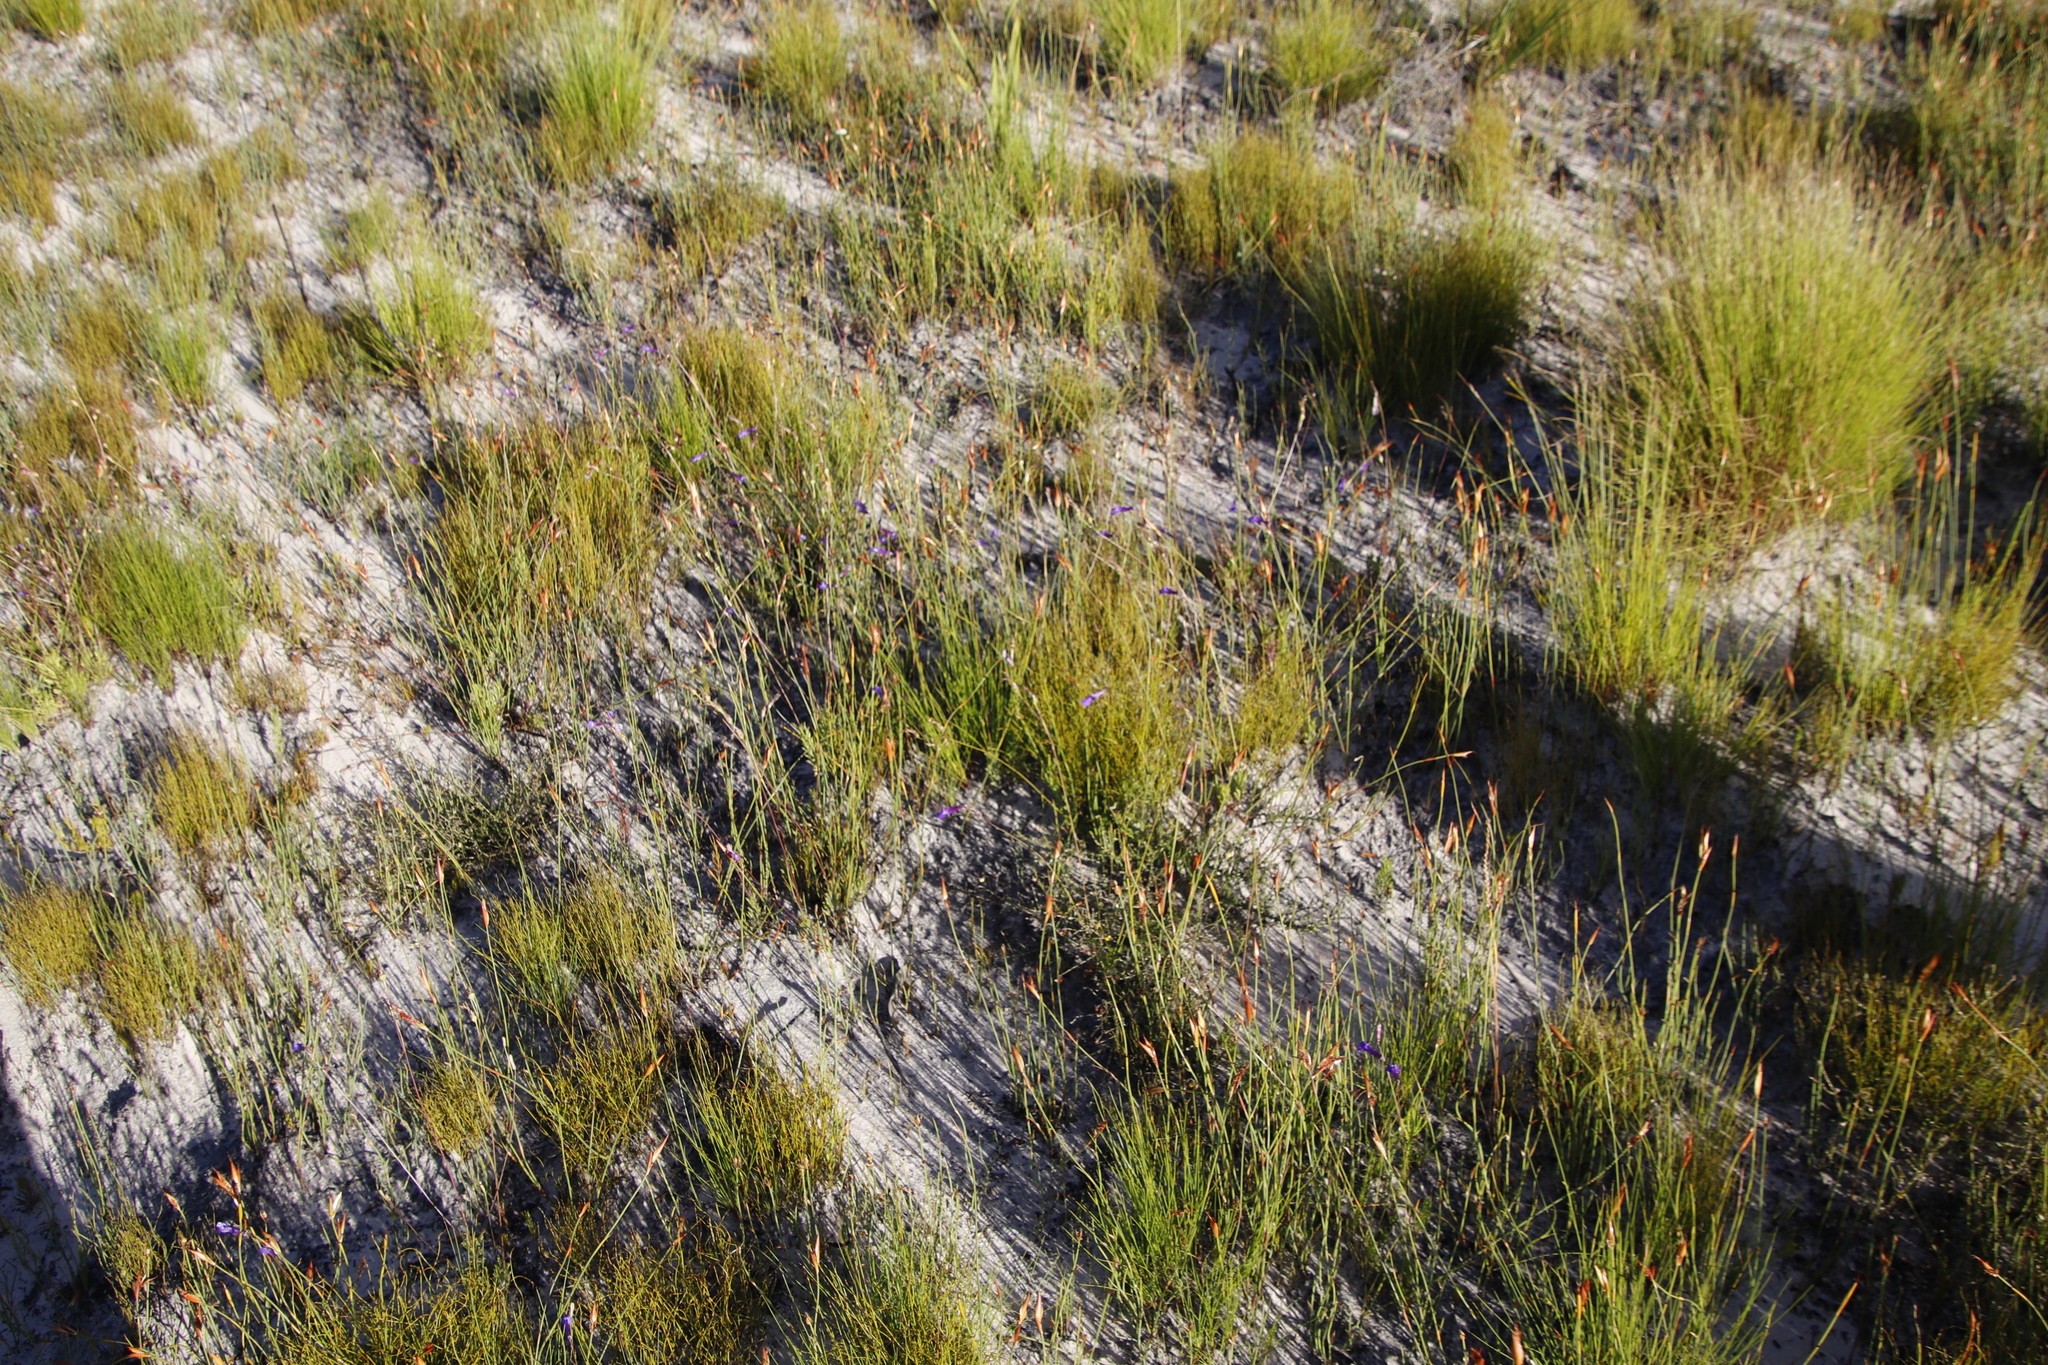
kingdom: Plantae
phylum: Tracheophyta
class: Magnoliopsida
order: Asterales
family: Campanulaceae
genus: Lobelia
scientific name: Lobelia coronopifolia
